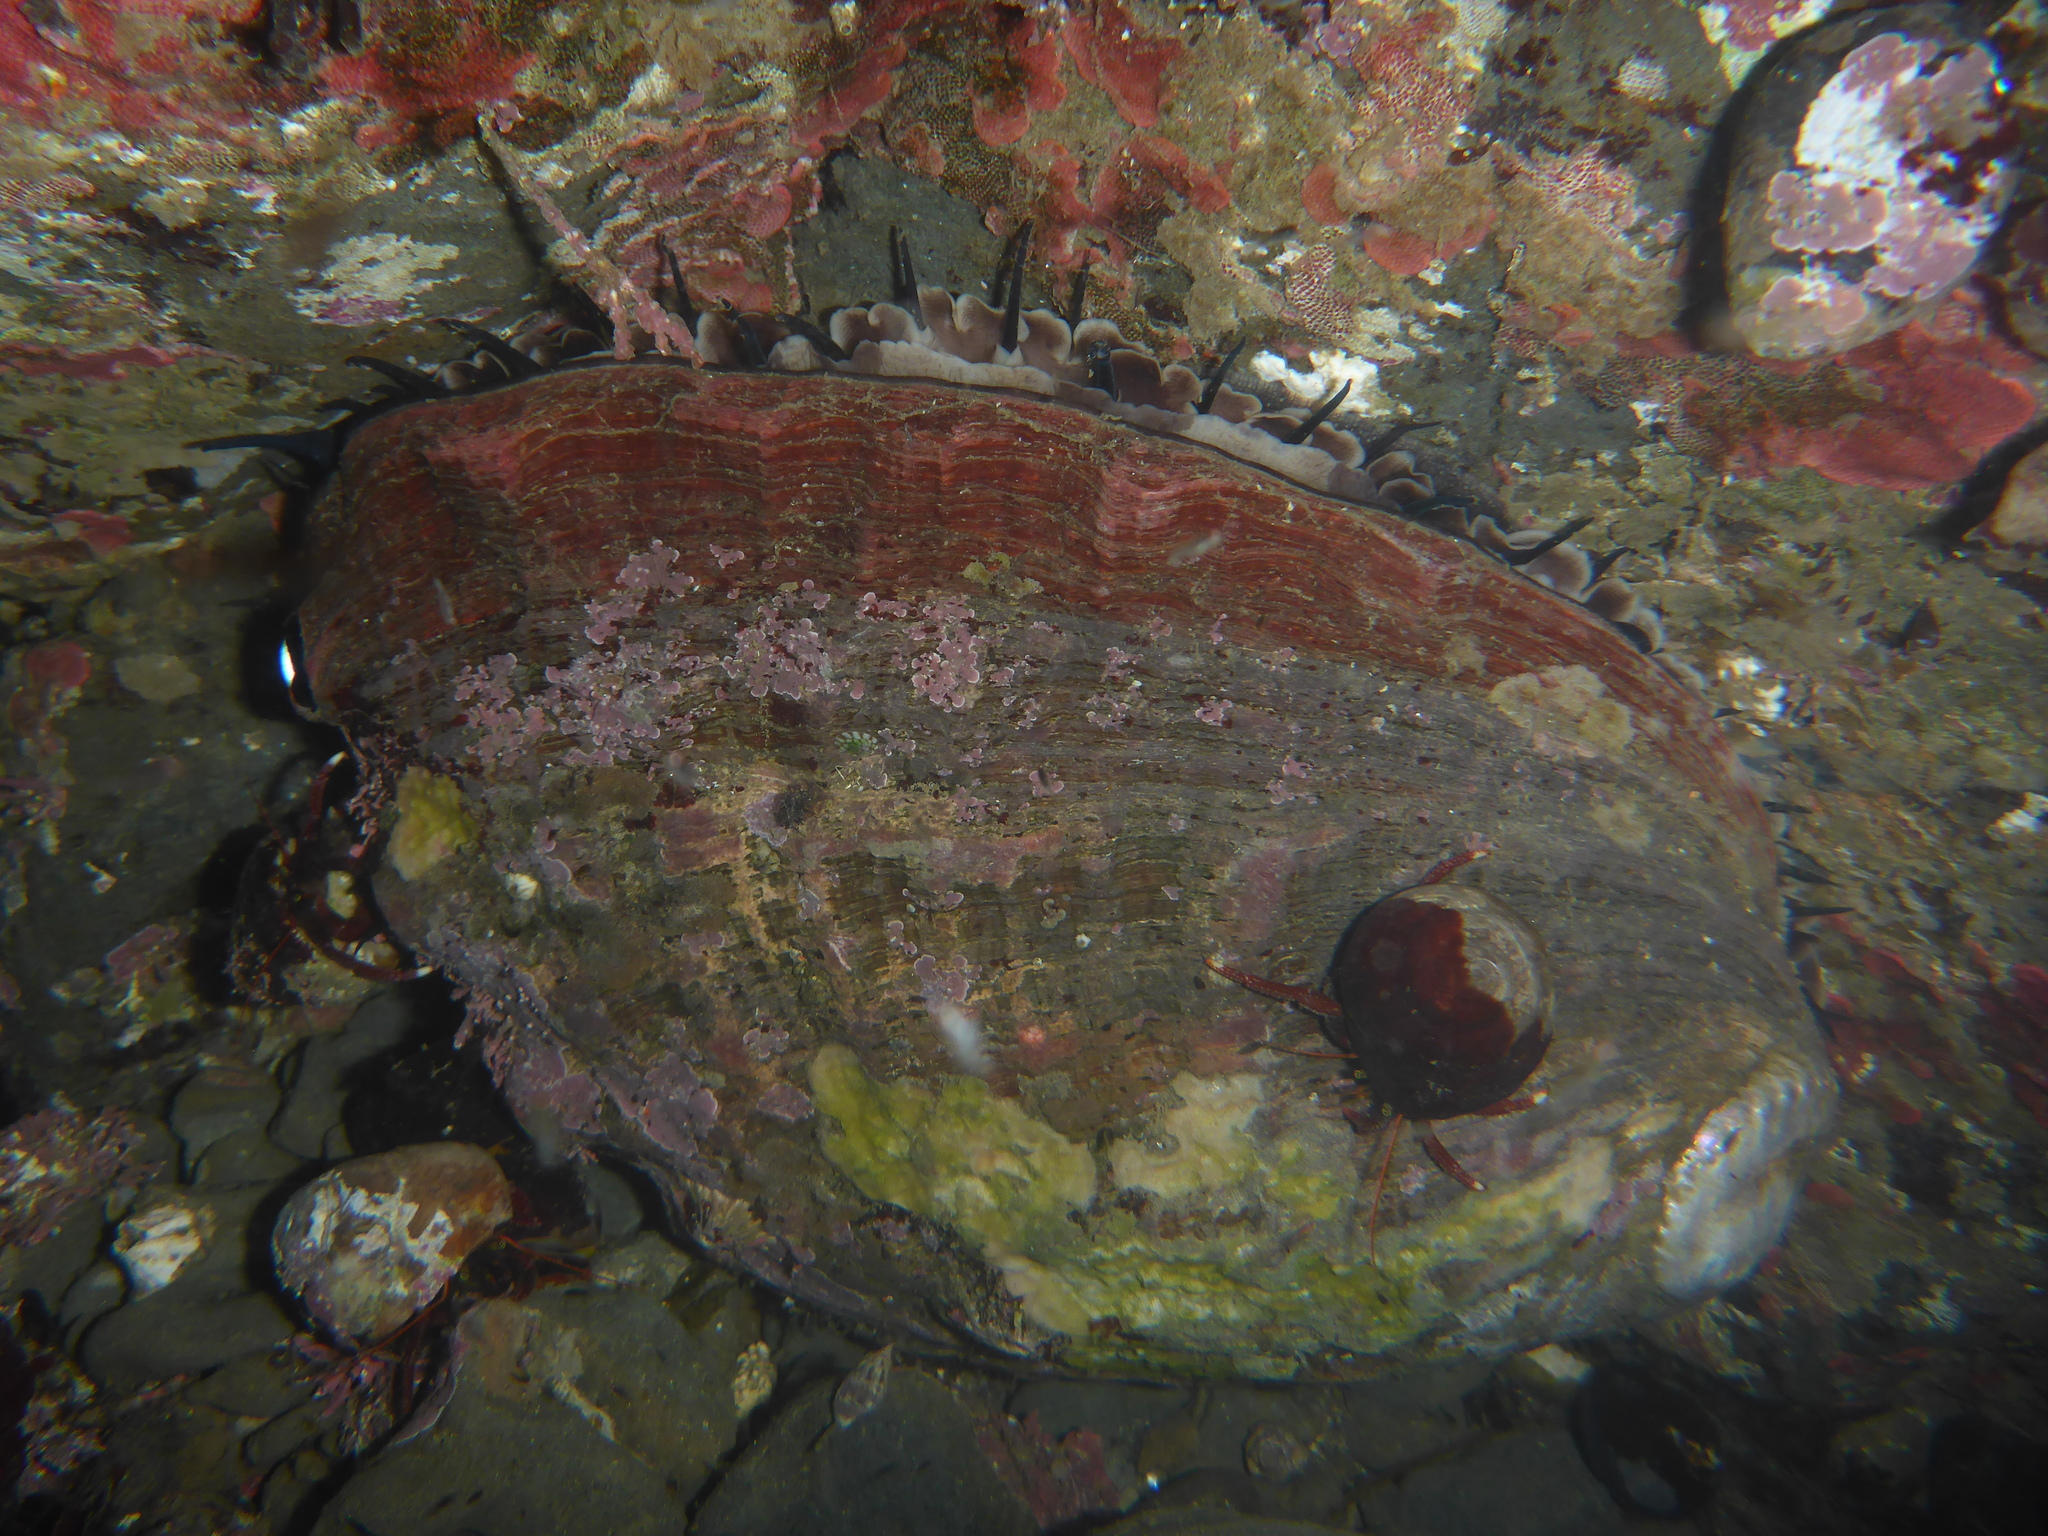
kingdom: Animalia
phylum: Mollusca
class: Gastropoda
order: Lepetellida
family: Haliotidae
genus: Haliotis
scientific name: Haliotis rufescens
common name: Red abalone
